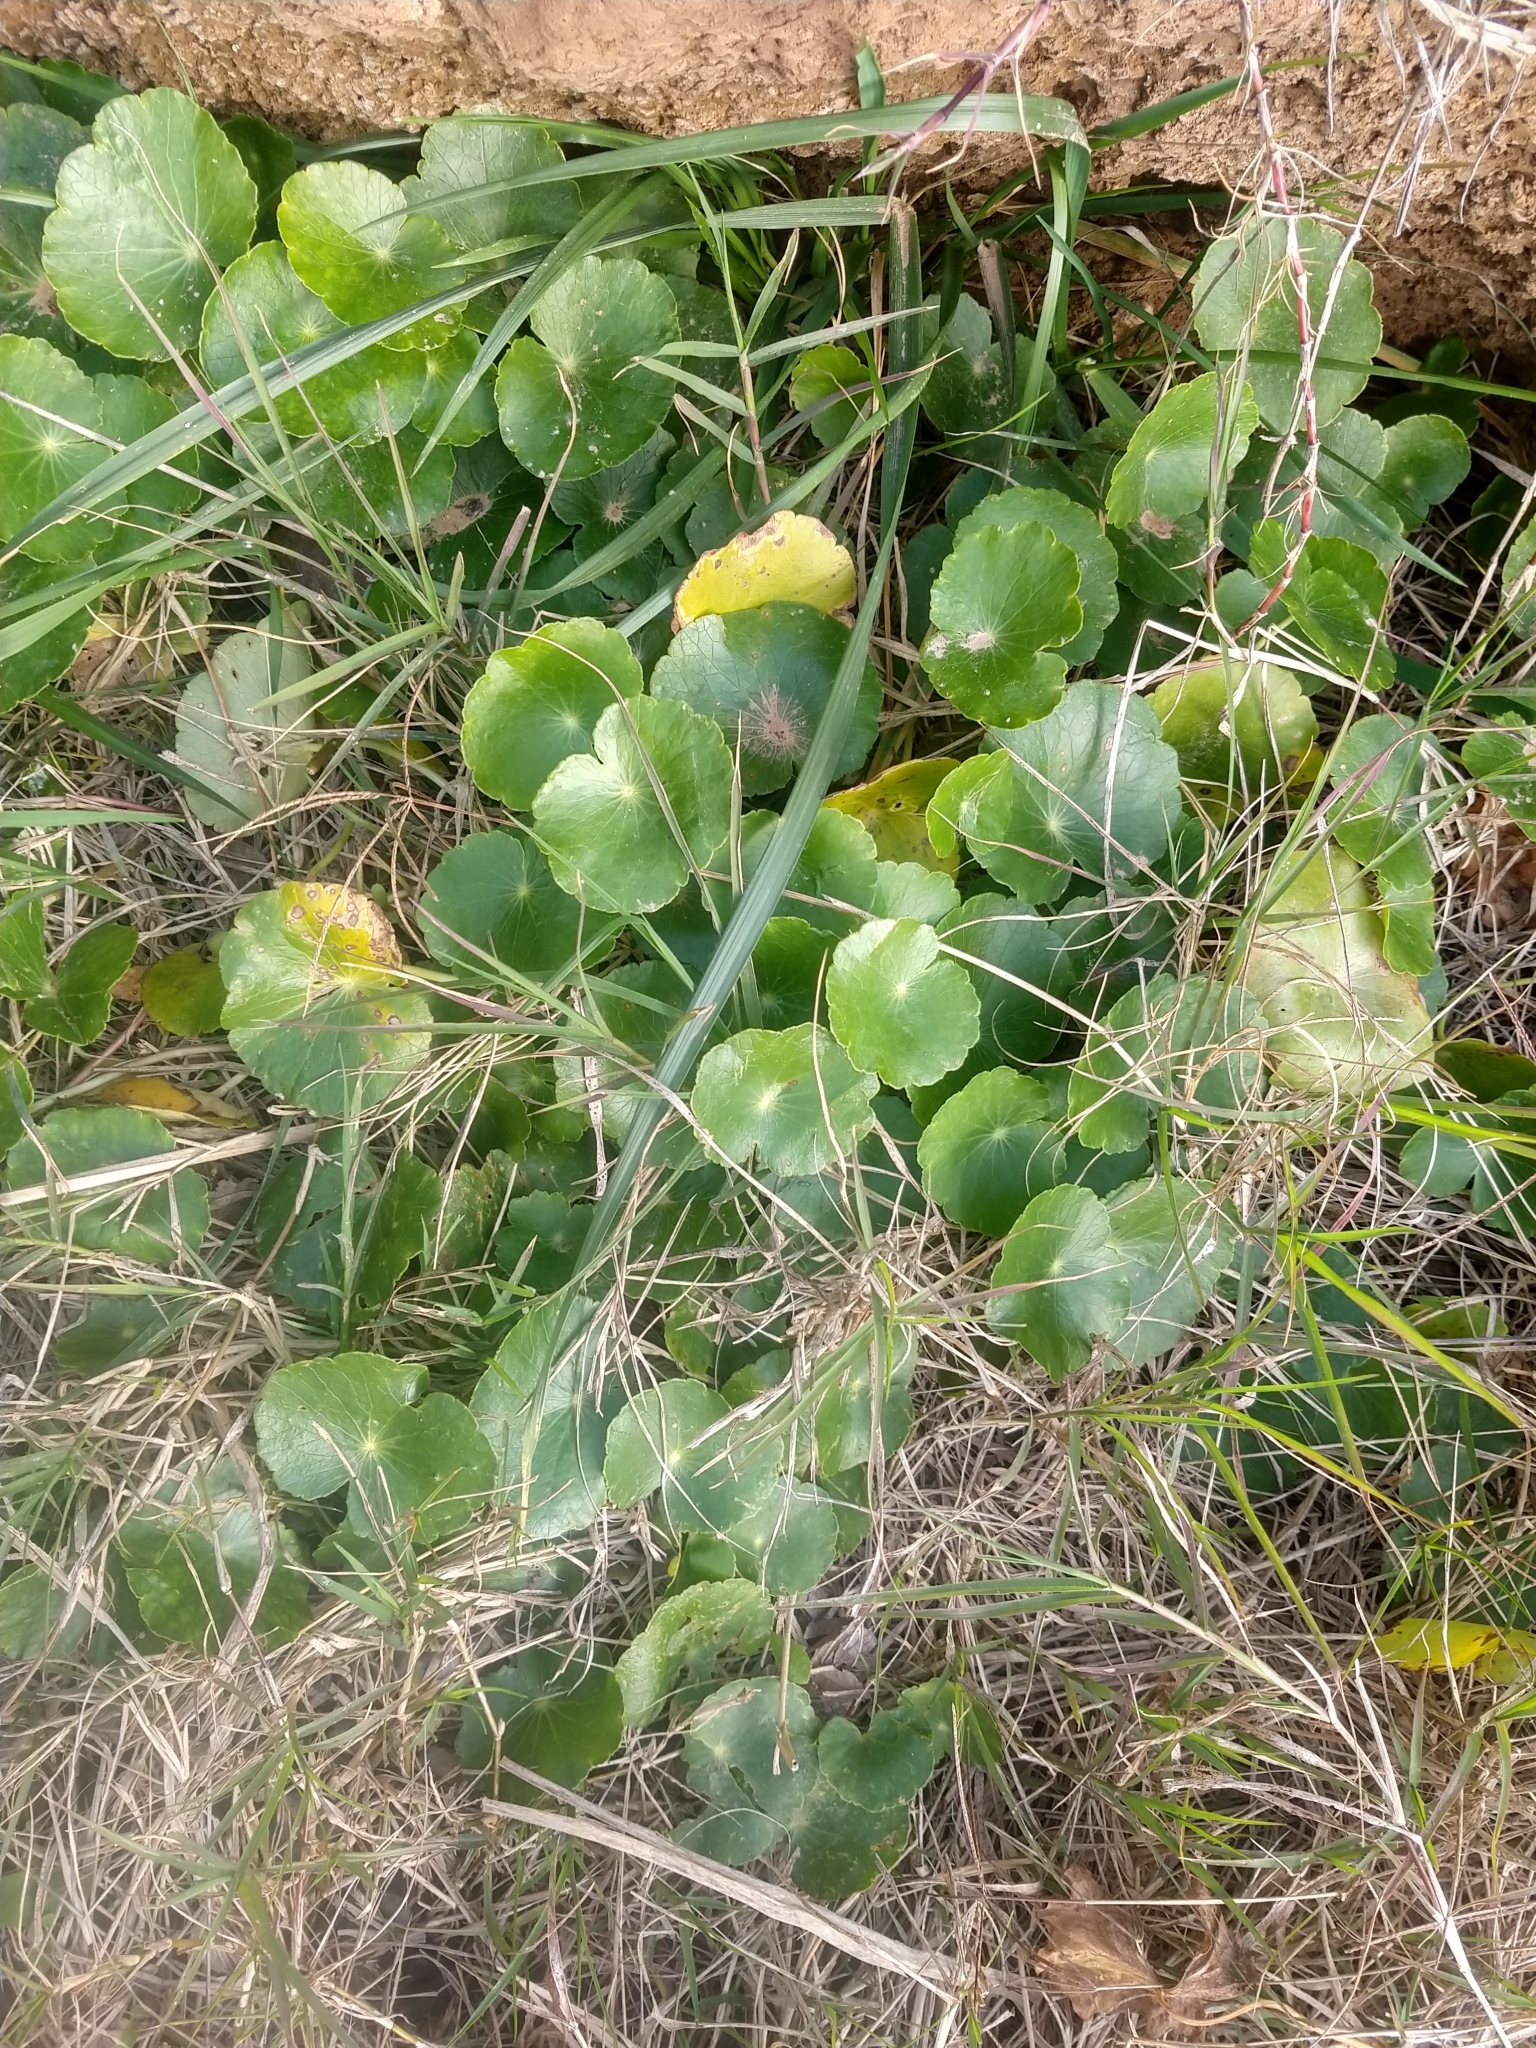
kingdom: Plantae
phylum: Tracheophyta
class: Magnoliopsida
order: Apiales
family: Araliaceae
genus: Hydrocotyle
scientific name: Hydrocotyle bonariensis
